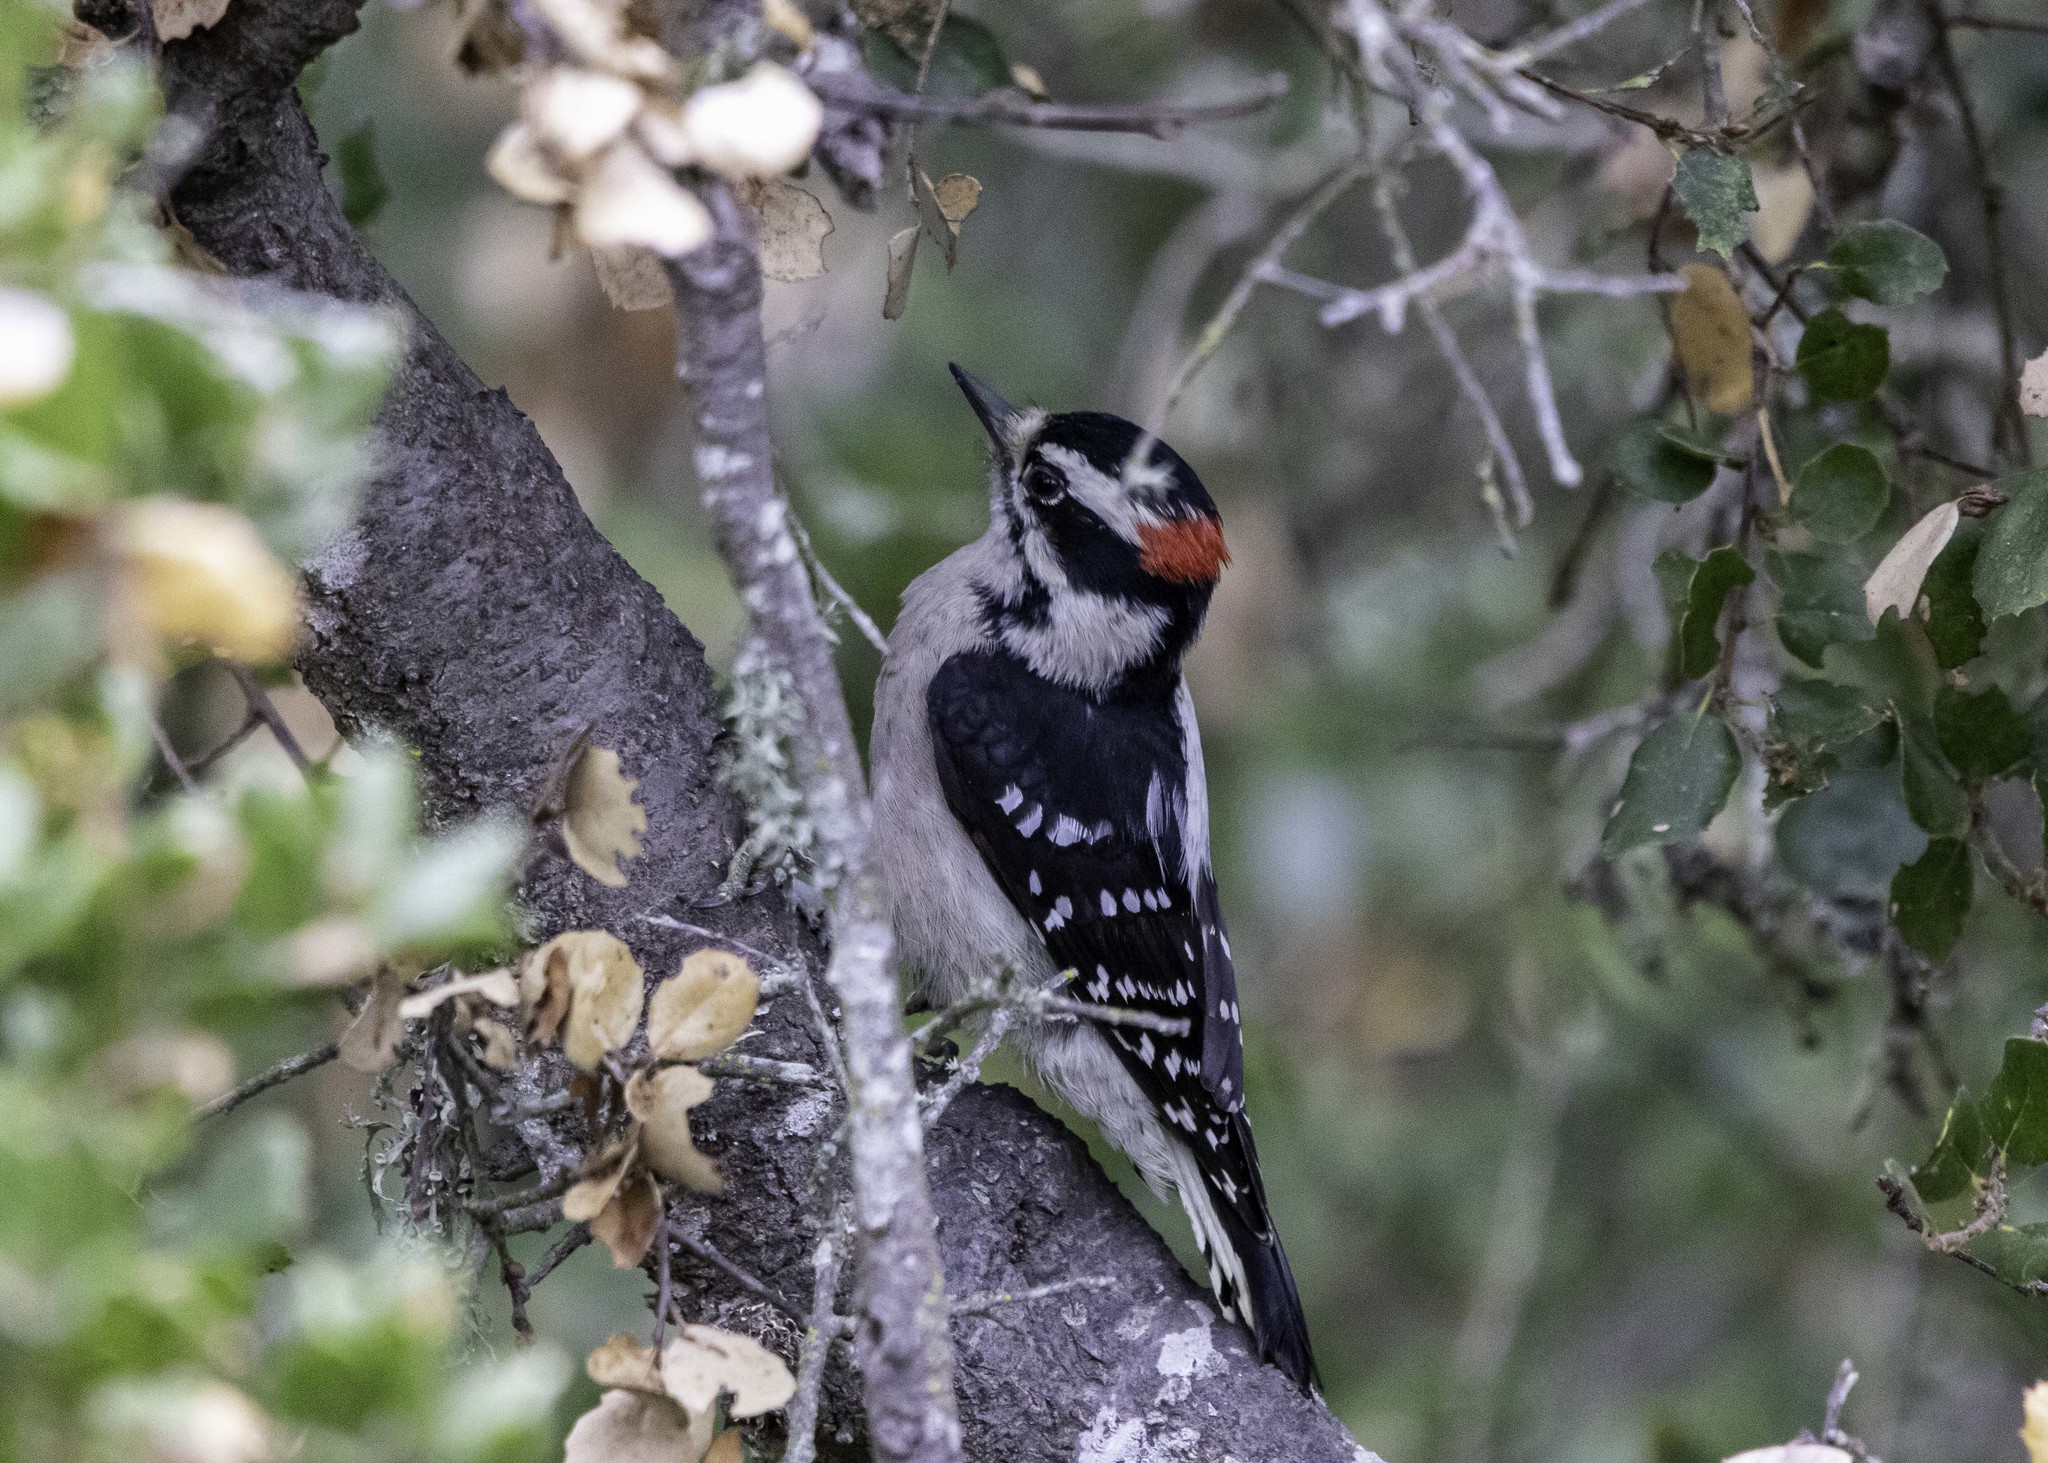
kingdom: Animalia
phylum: Chordata
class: Aves
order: Piciformes
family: Picidae
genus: Dryobates
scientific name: Dryobates pubescens
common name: Downy woodpecker
